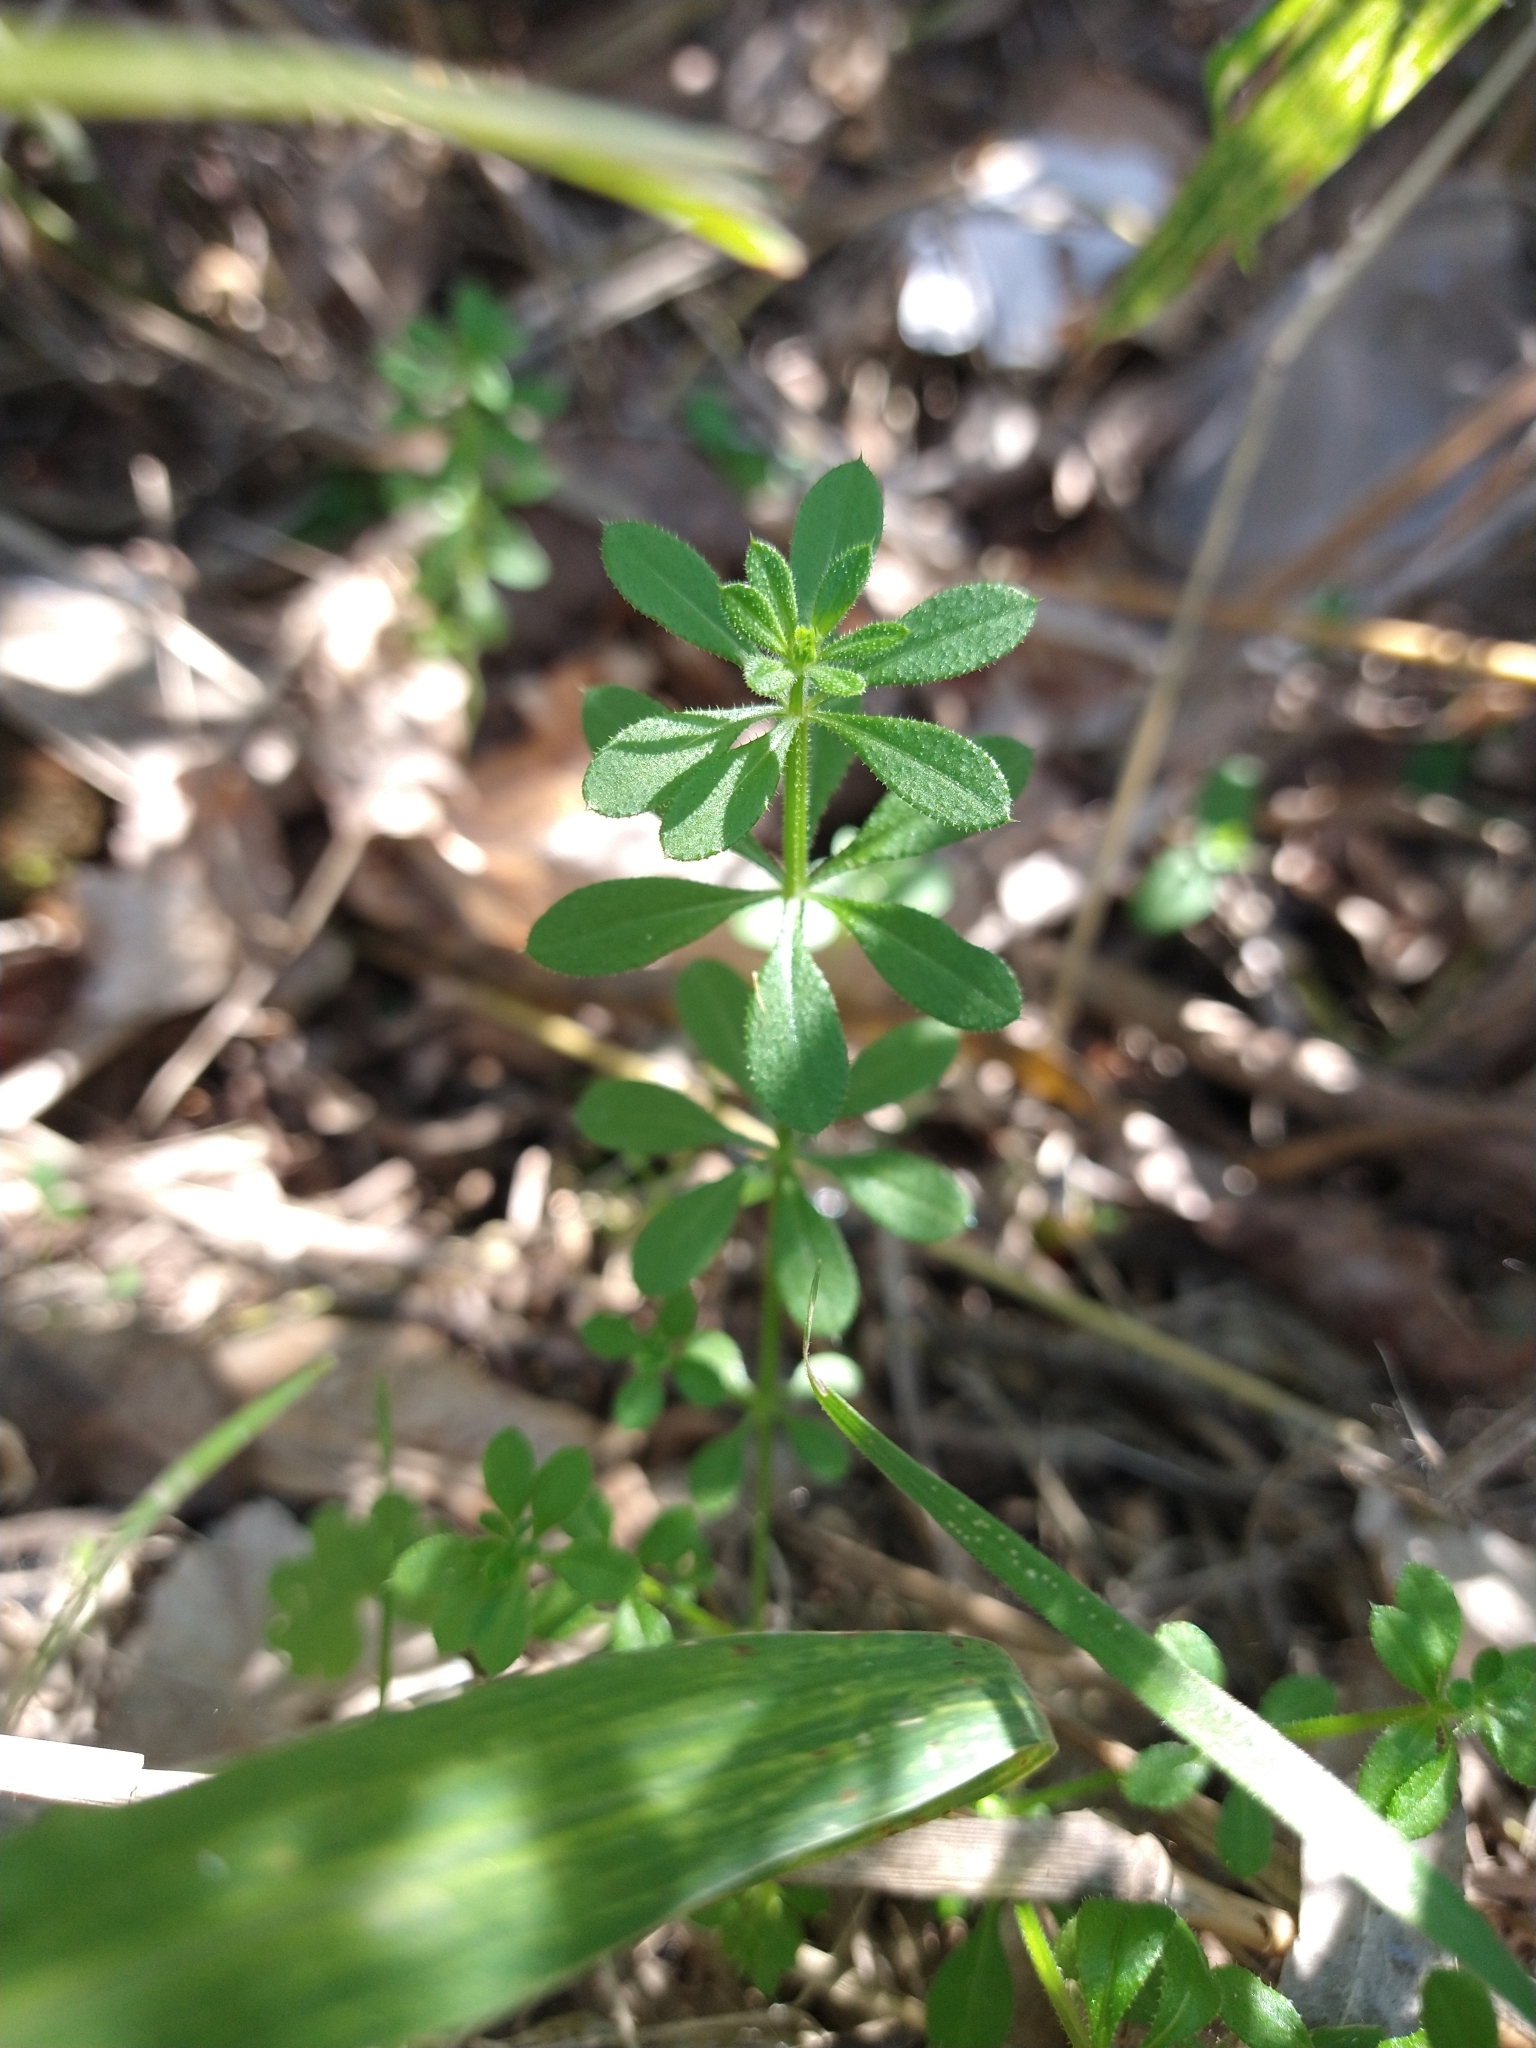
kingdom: Plantae
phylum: Tracheophyta
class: Magnoliopsida
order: Gentianales
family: Rubiaceae
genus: Galium
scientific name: Galium aparine
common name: Cleavers
